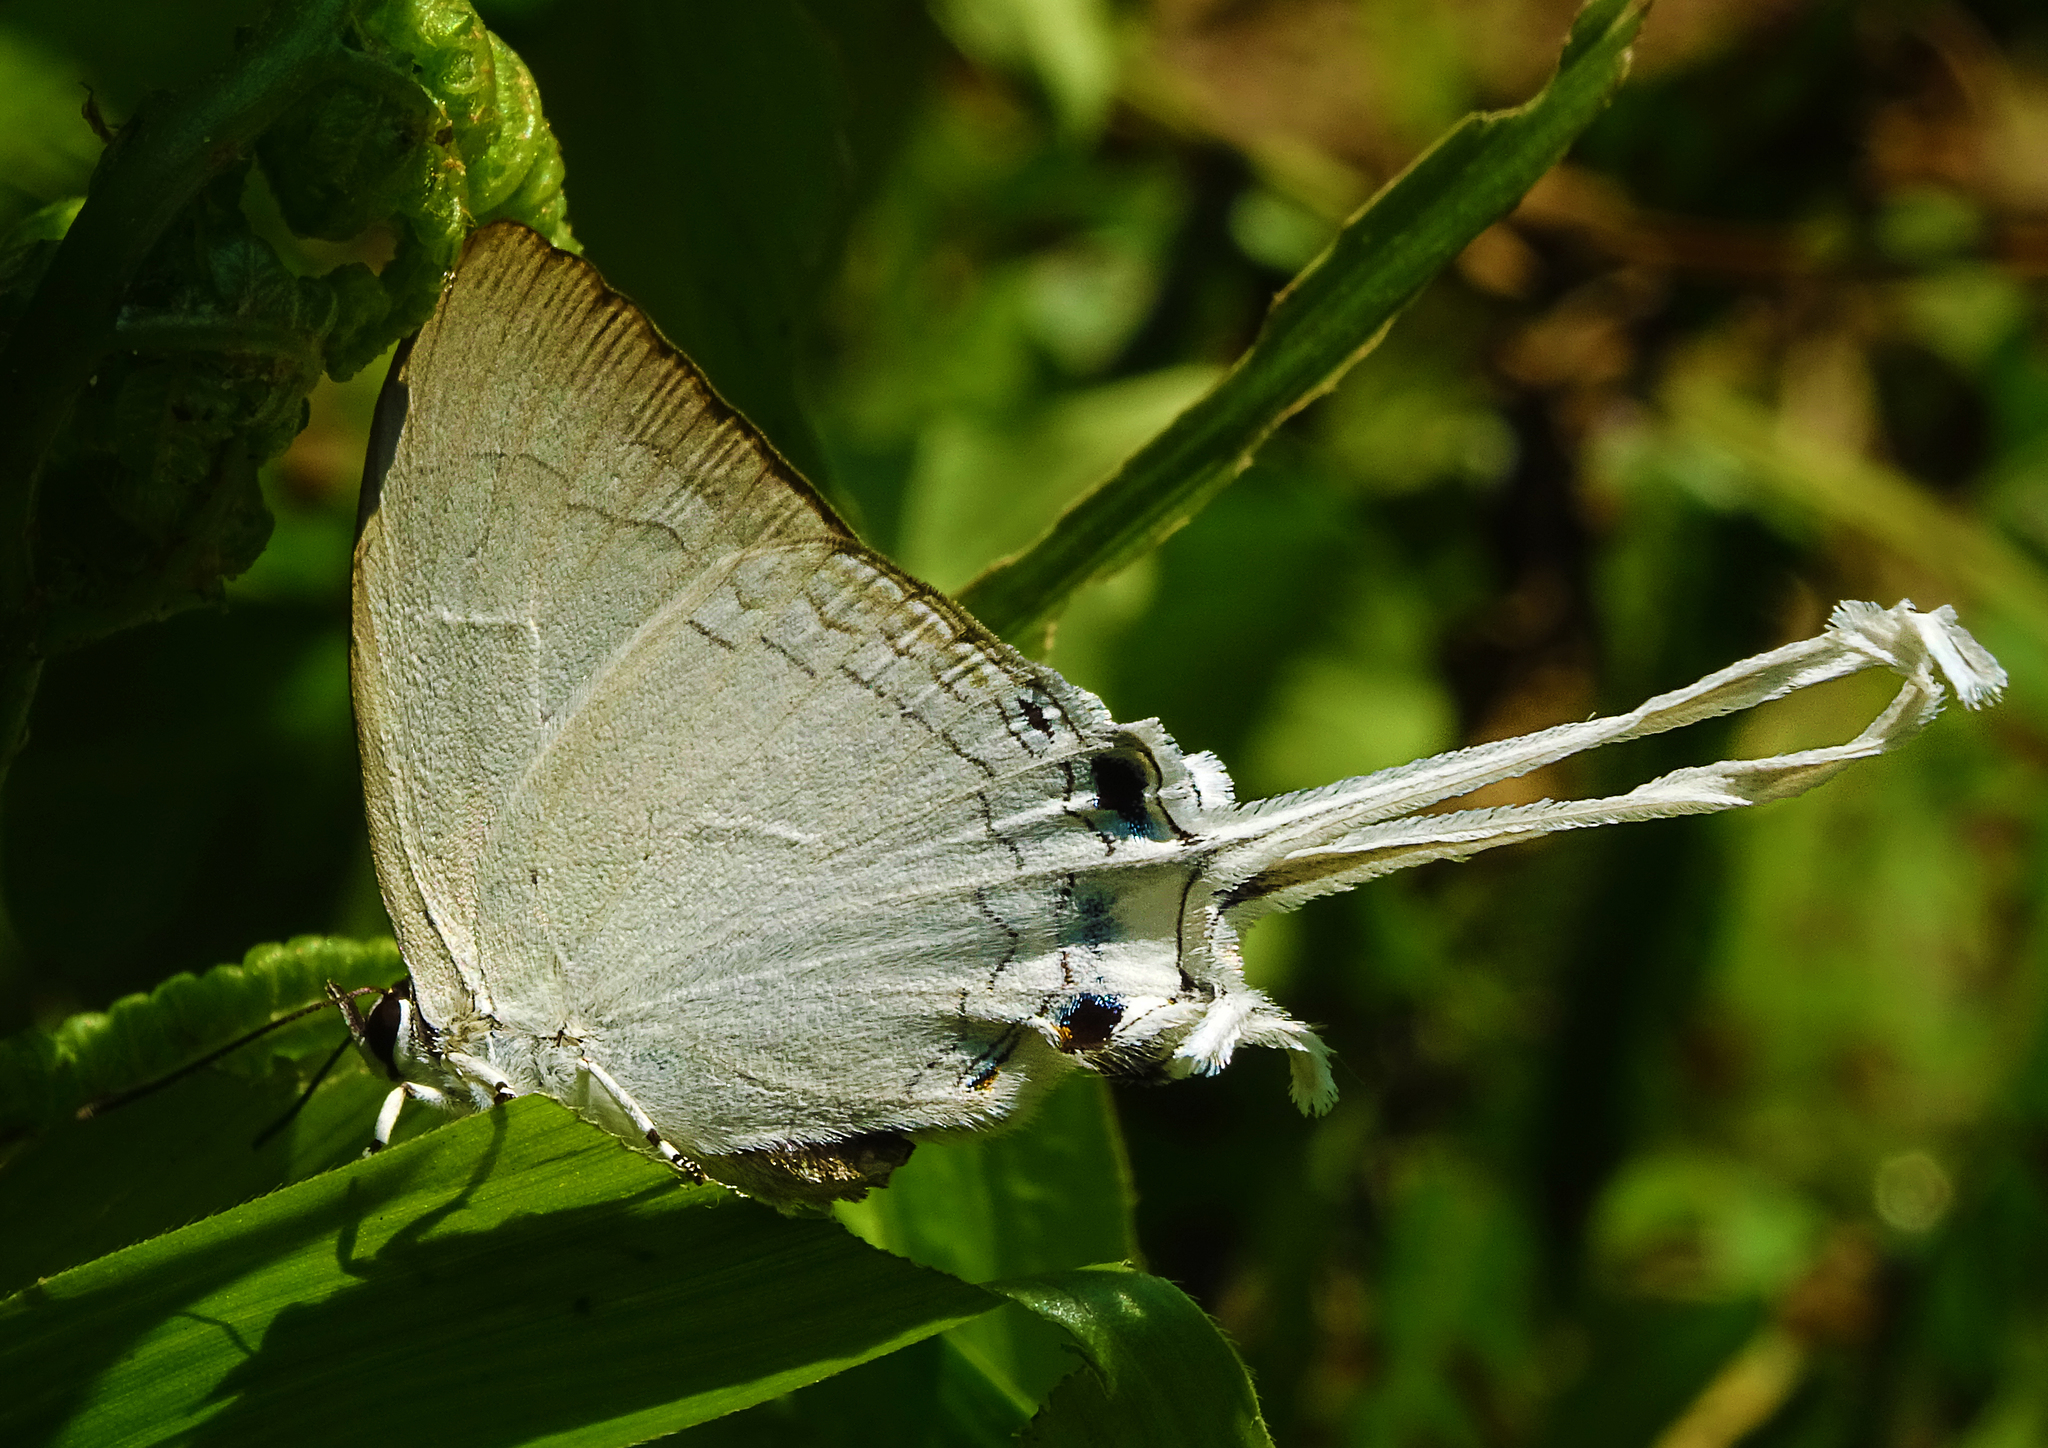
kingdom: Animalia
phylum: Arthropoda
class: Insecta
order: Lepidoptera
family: Lycaenidae
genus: Cheritra
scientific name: Cheritra freja
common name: Common imperial
